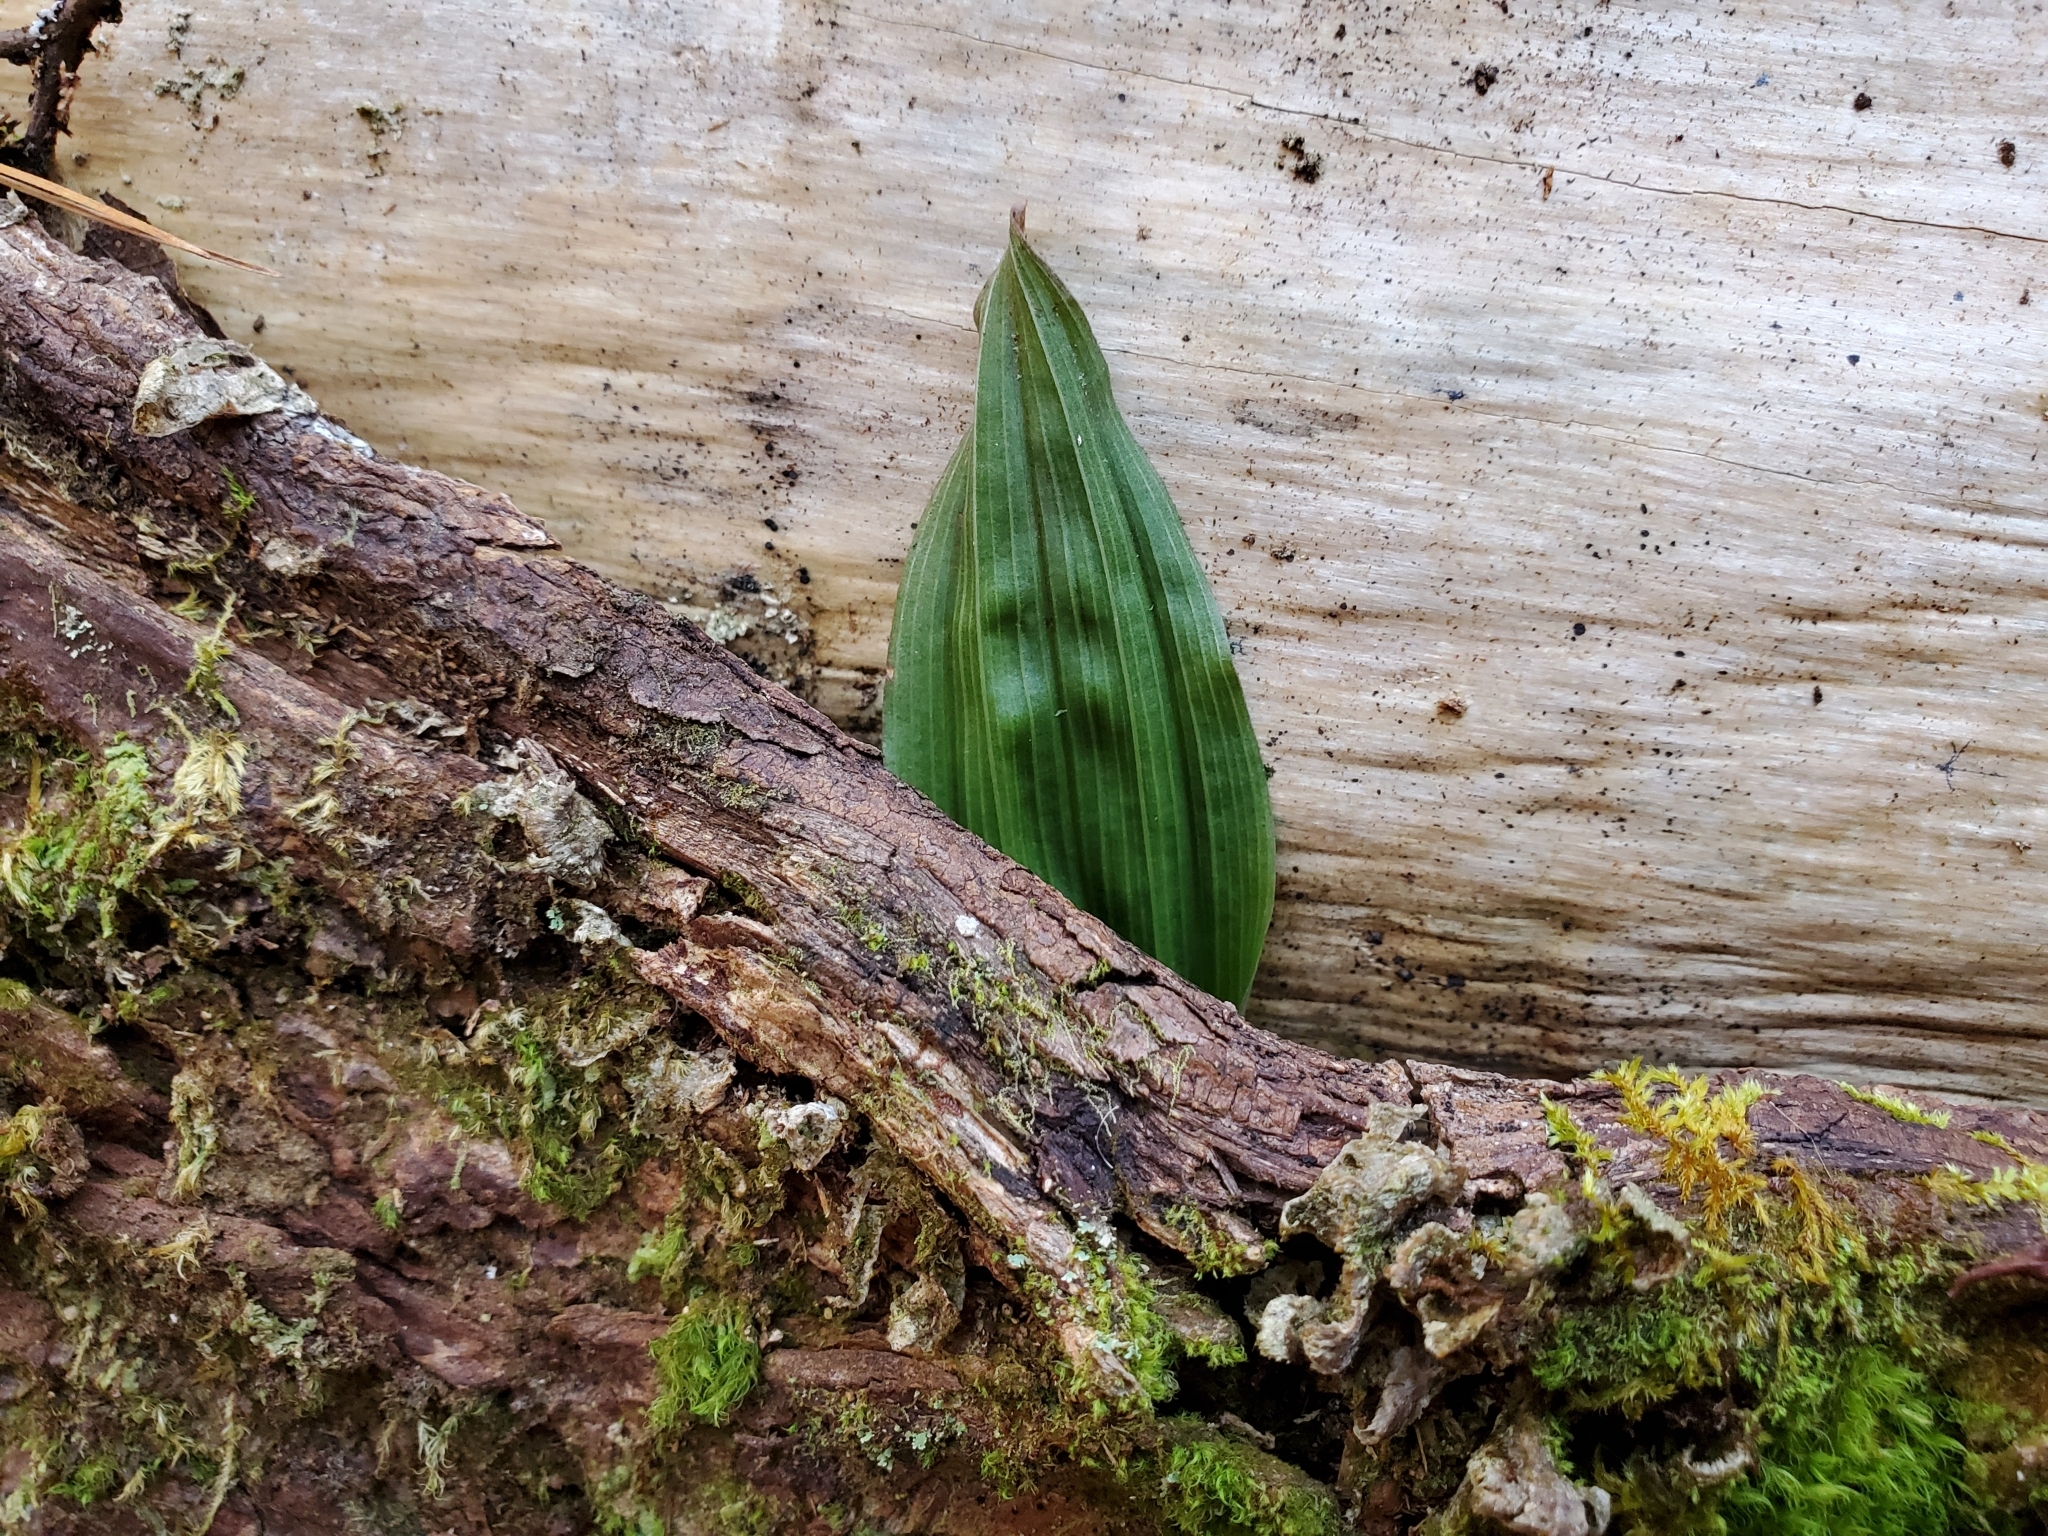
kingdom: Plantae
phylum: Tracheophyta
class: Liliopsida
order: Asparagales
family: Orchidaceae
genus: Aplectrum
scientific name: Aplectrum hyemale
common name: Adam-and-eve
